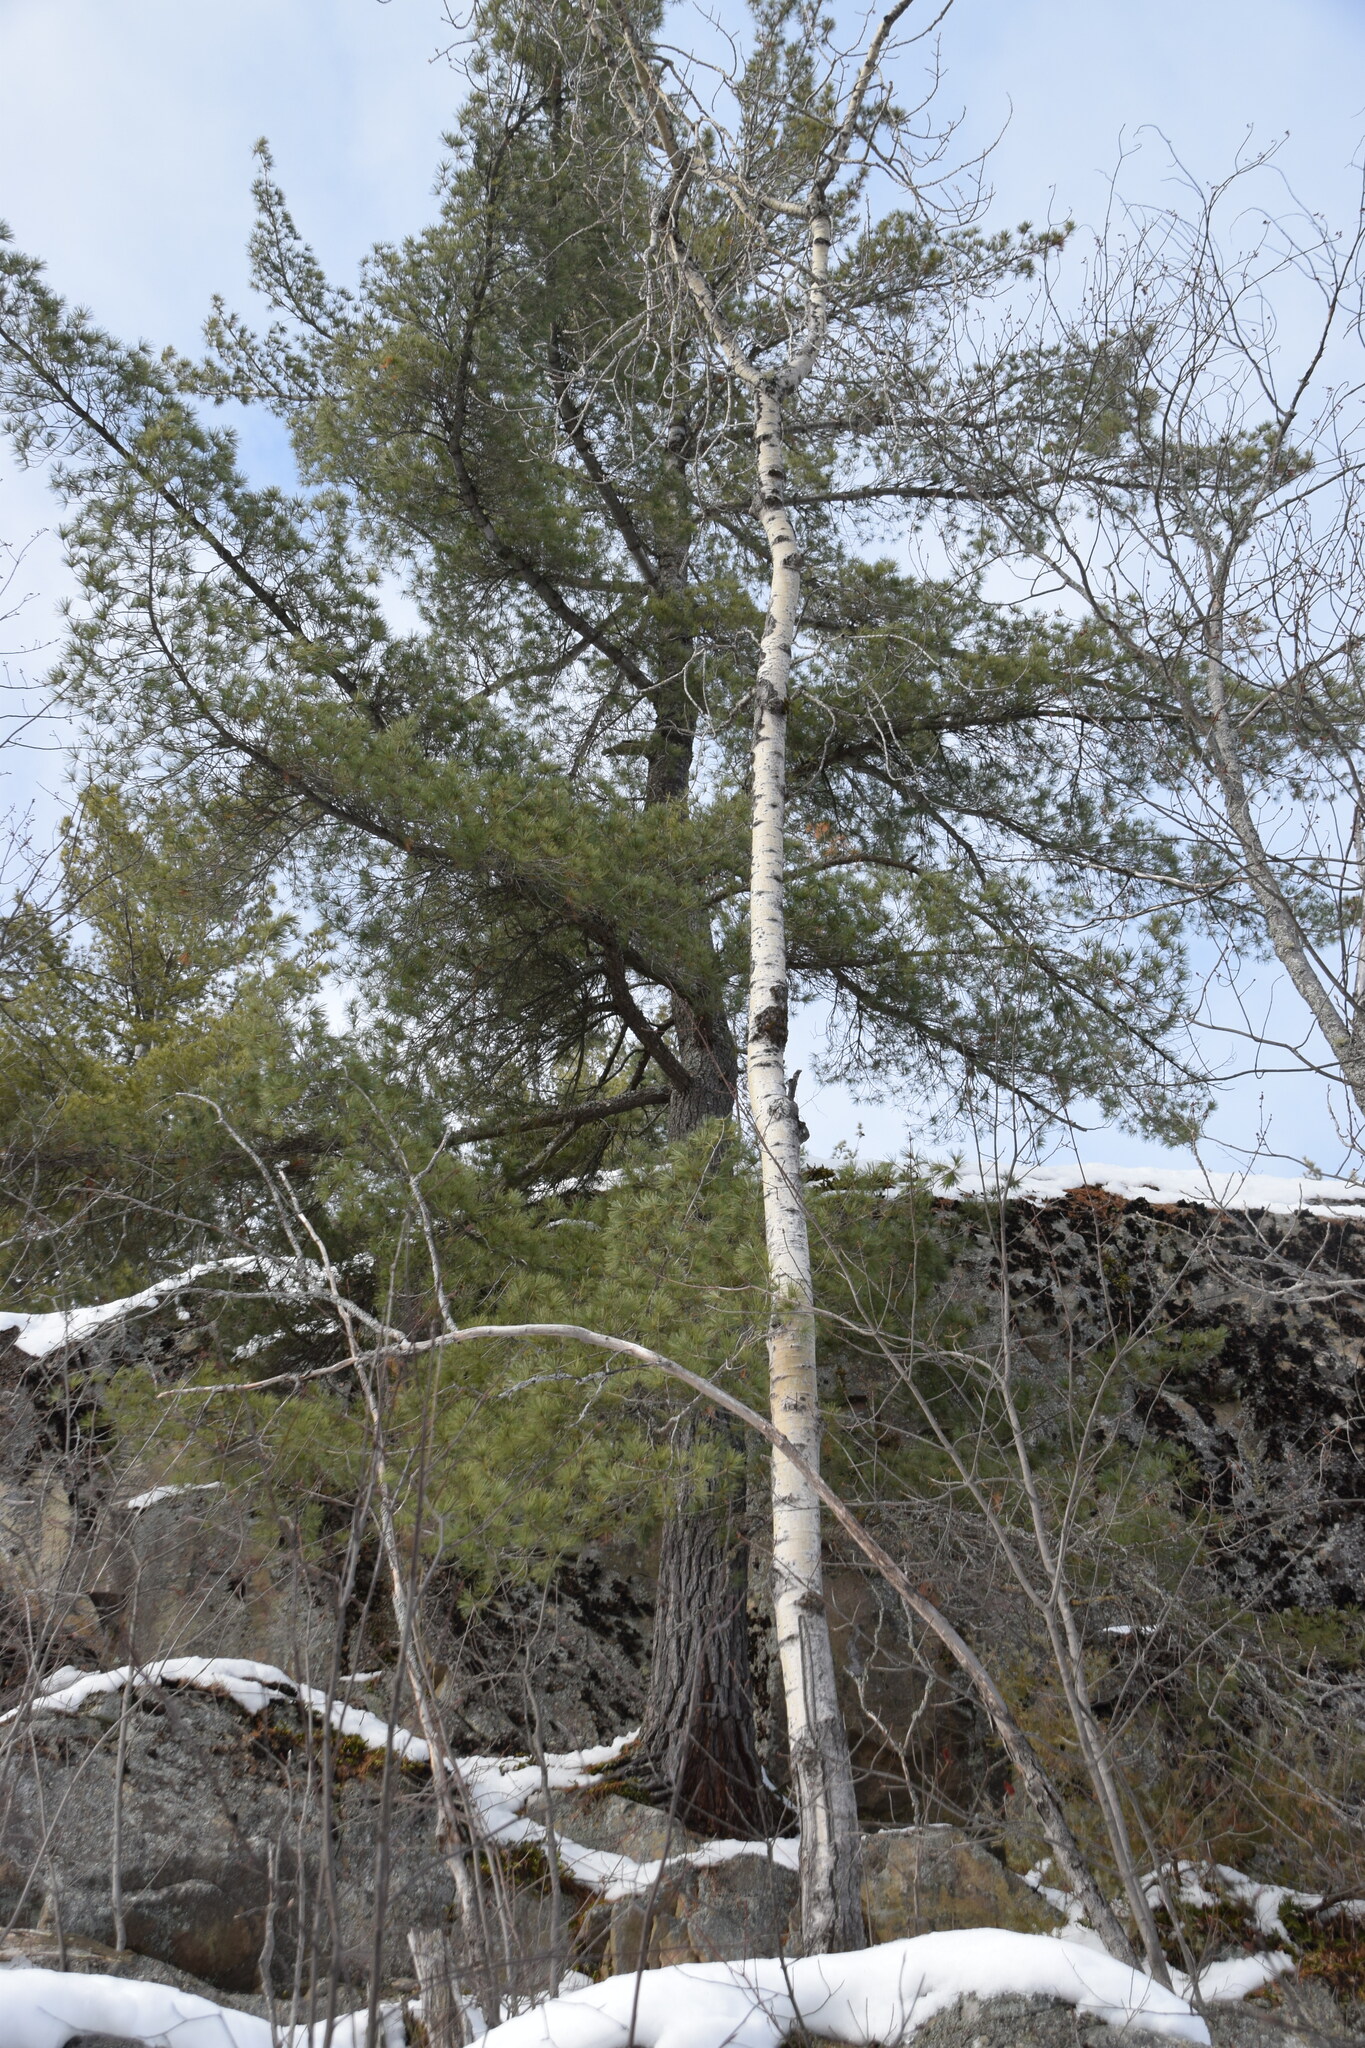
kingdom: Plantae
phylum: Tracheophyta
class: Pinopsida
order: Pinales
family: Pinaceae
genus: Pinus
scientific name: Pinus strobus
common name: Weymouth pine
